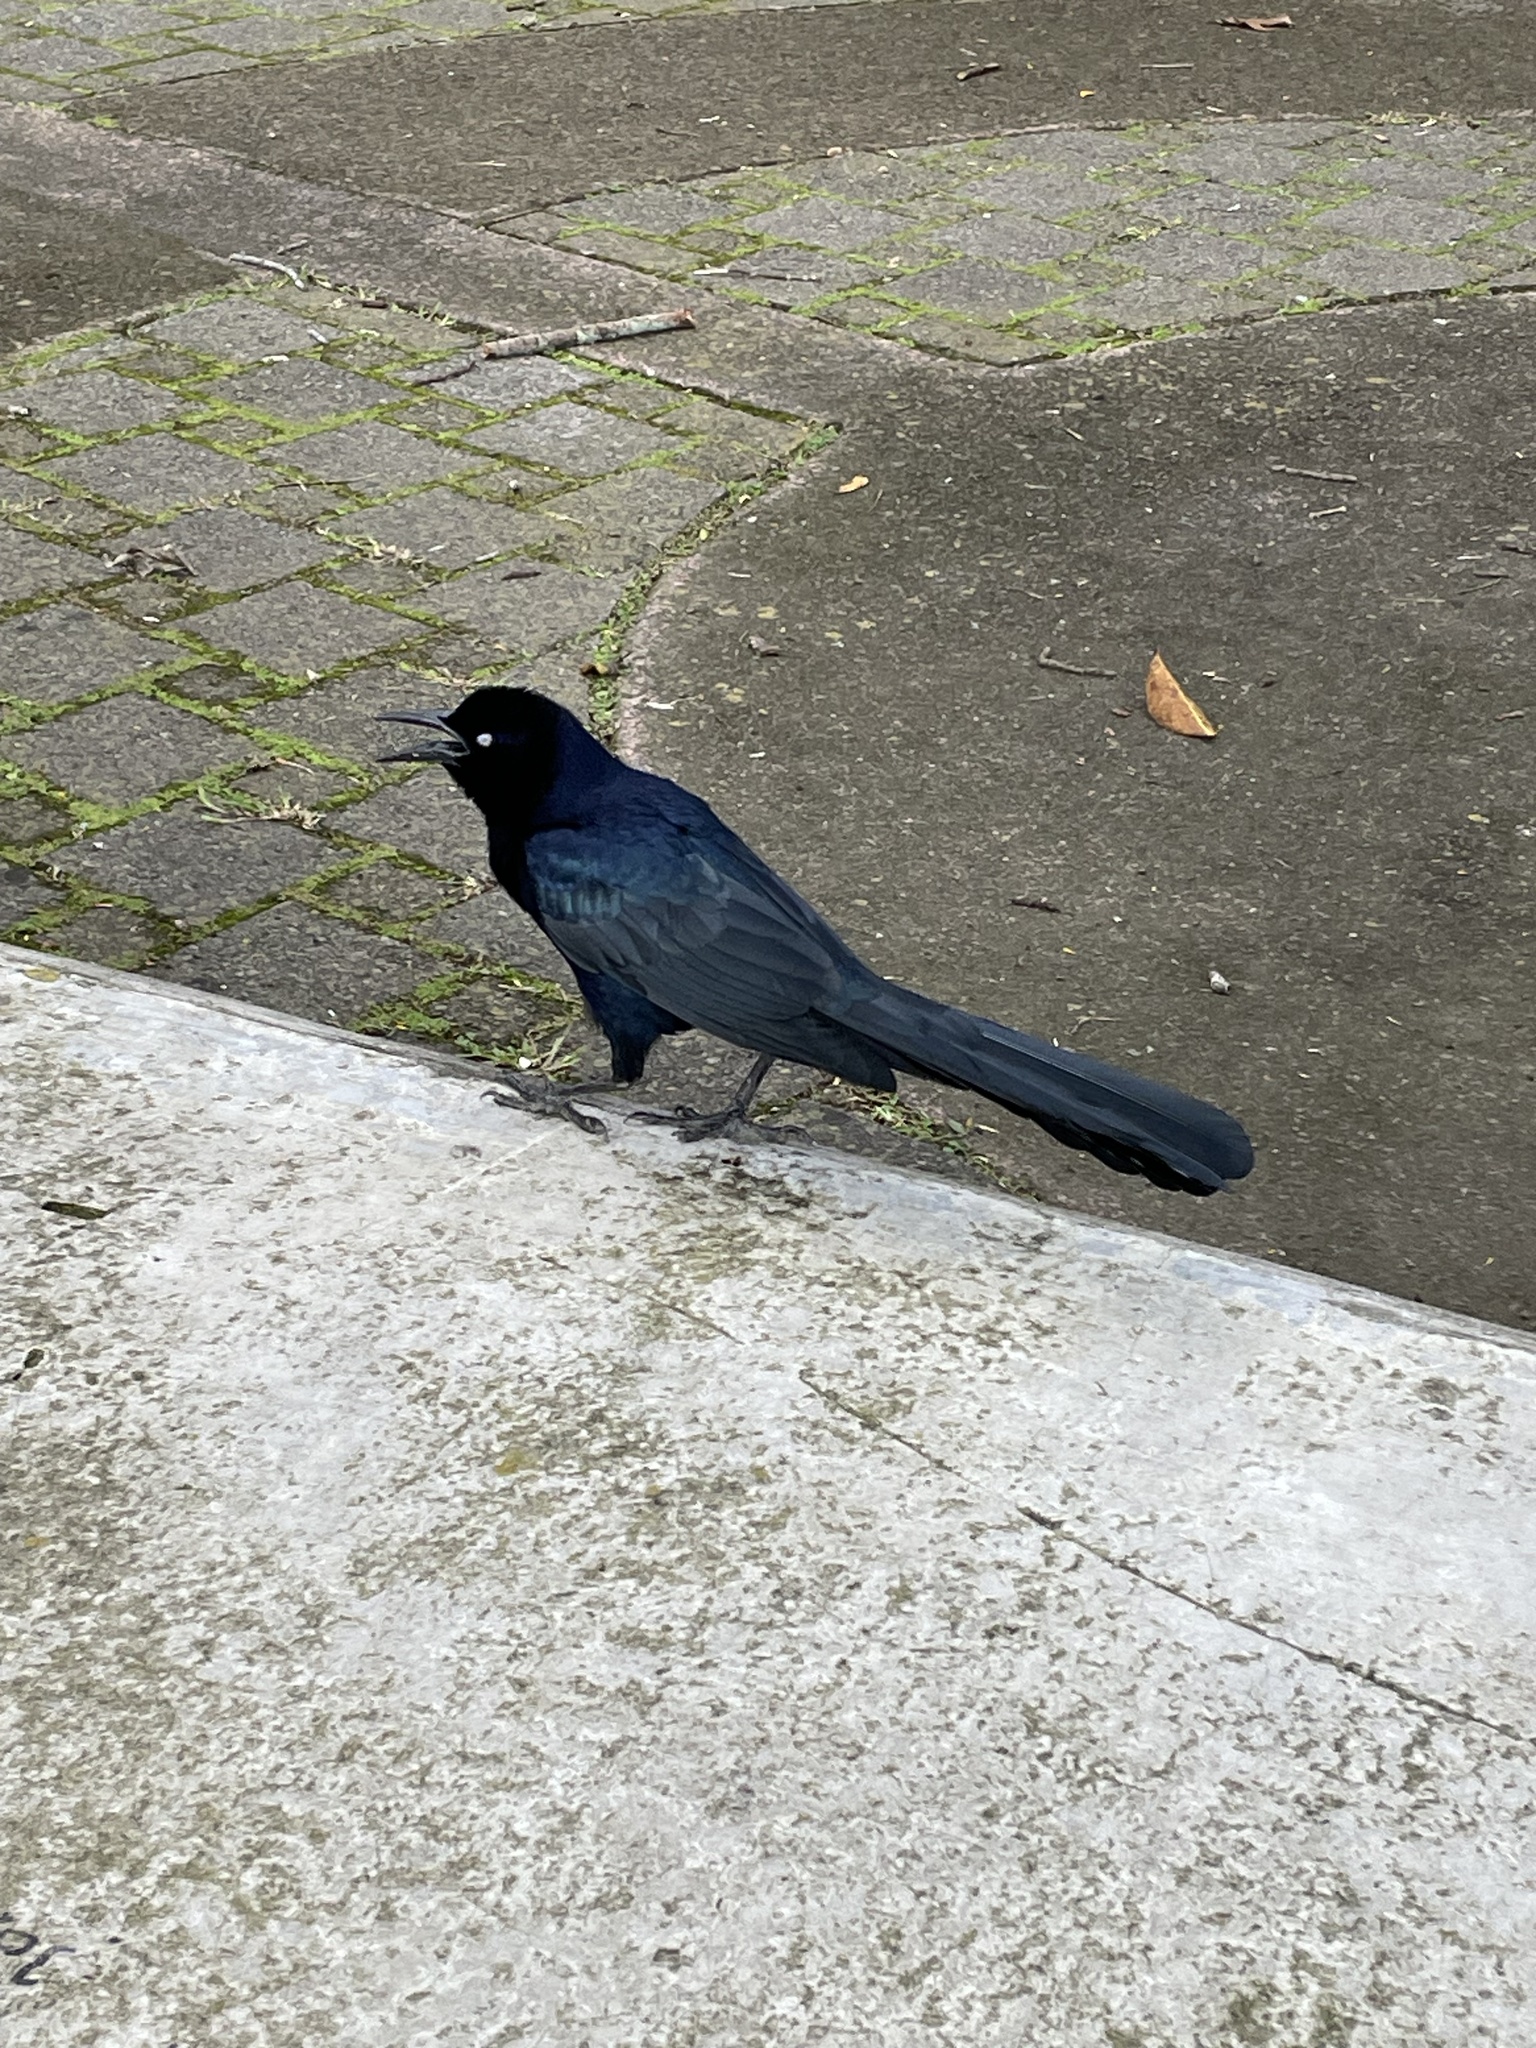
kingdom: Animalia
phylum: Chordata
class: Aves
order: Passeriformes
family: Icteridae
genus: Quiscalus
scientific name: Quiscalus mexicanus
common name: Great-tailed grackle
